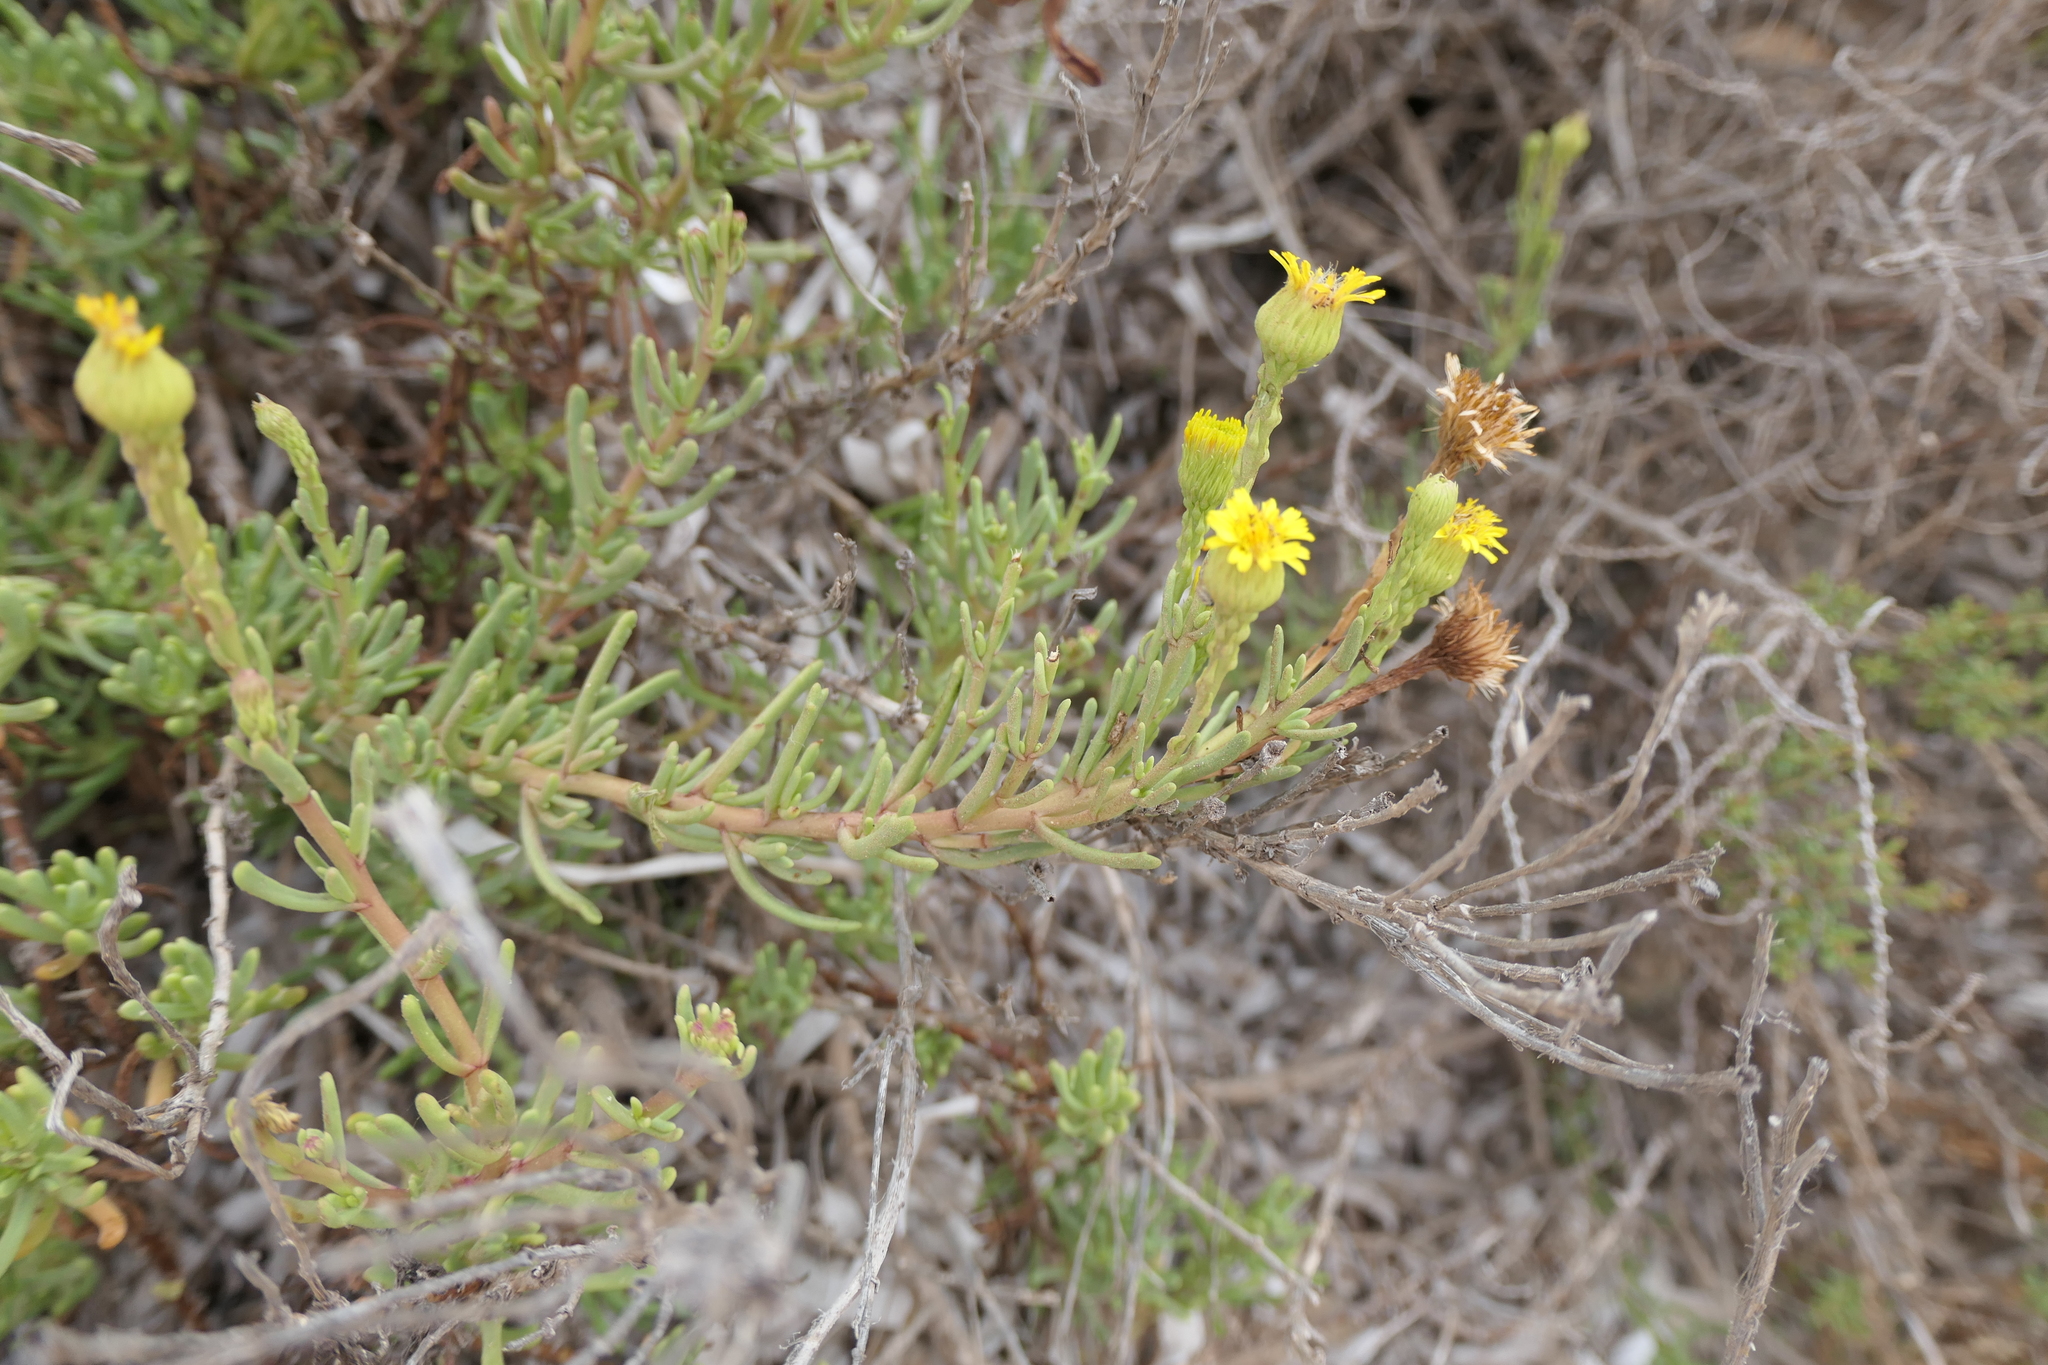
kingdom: Plantae
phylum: Tracheophyta
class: Magnoliopsida
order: Asterales
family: Asteraceae
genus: Limbarda
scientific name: Limbarda crithmoides
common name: Golden samphire
